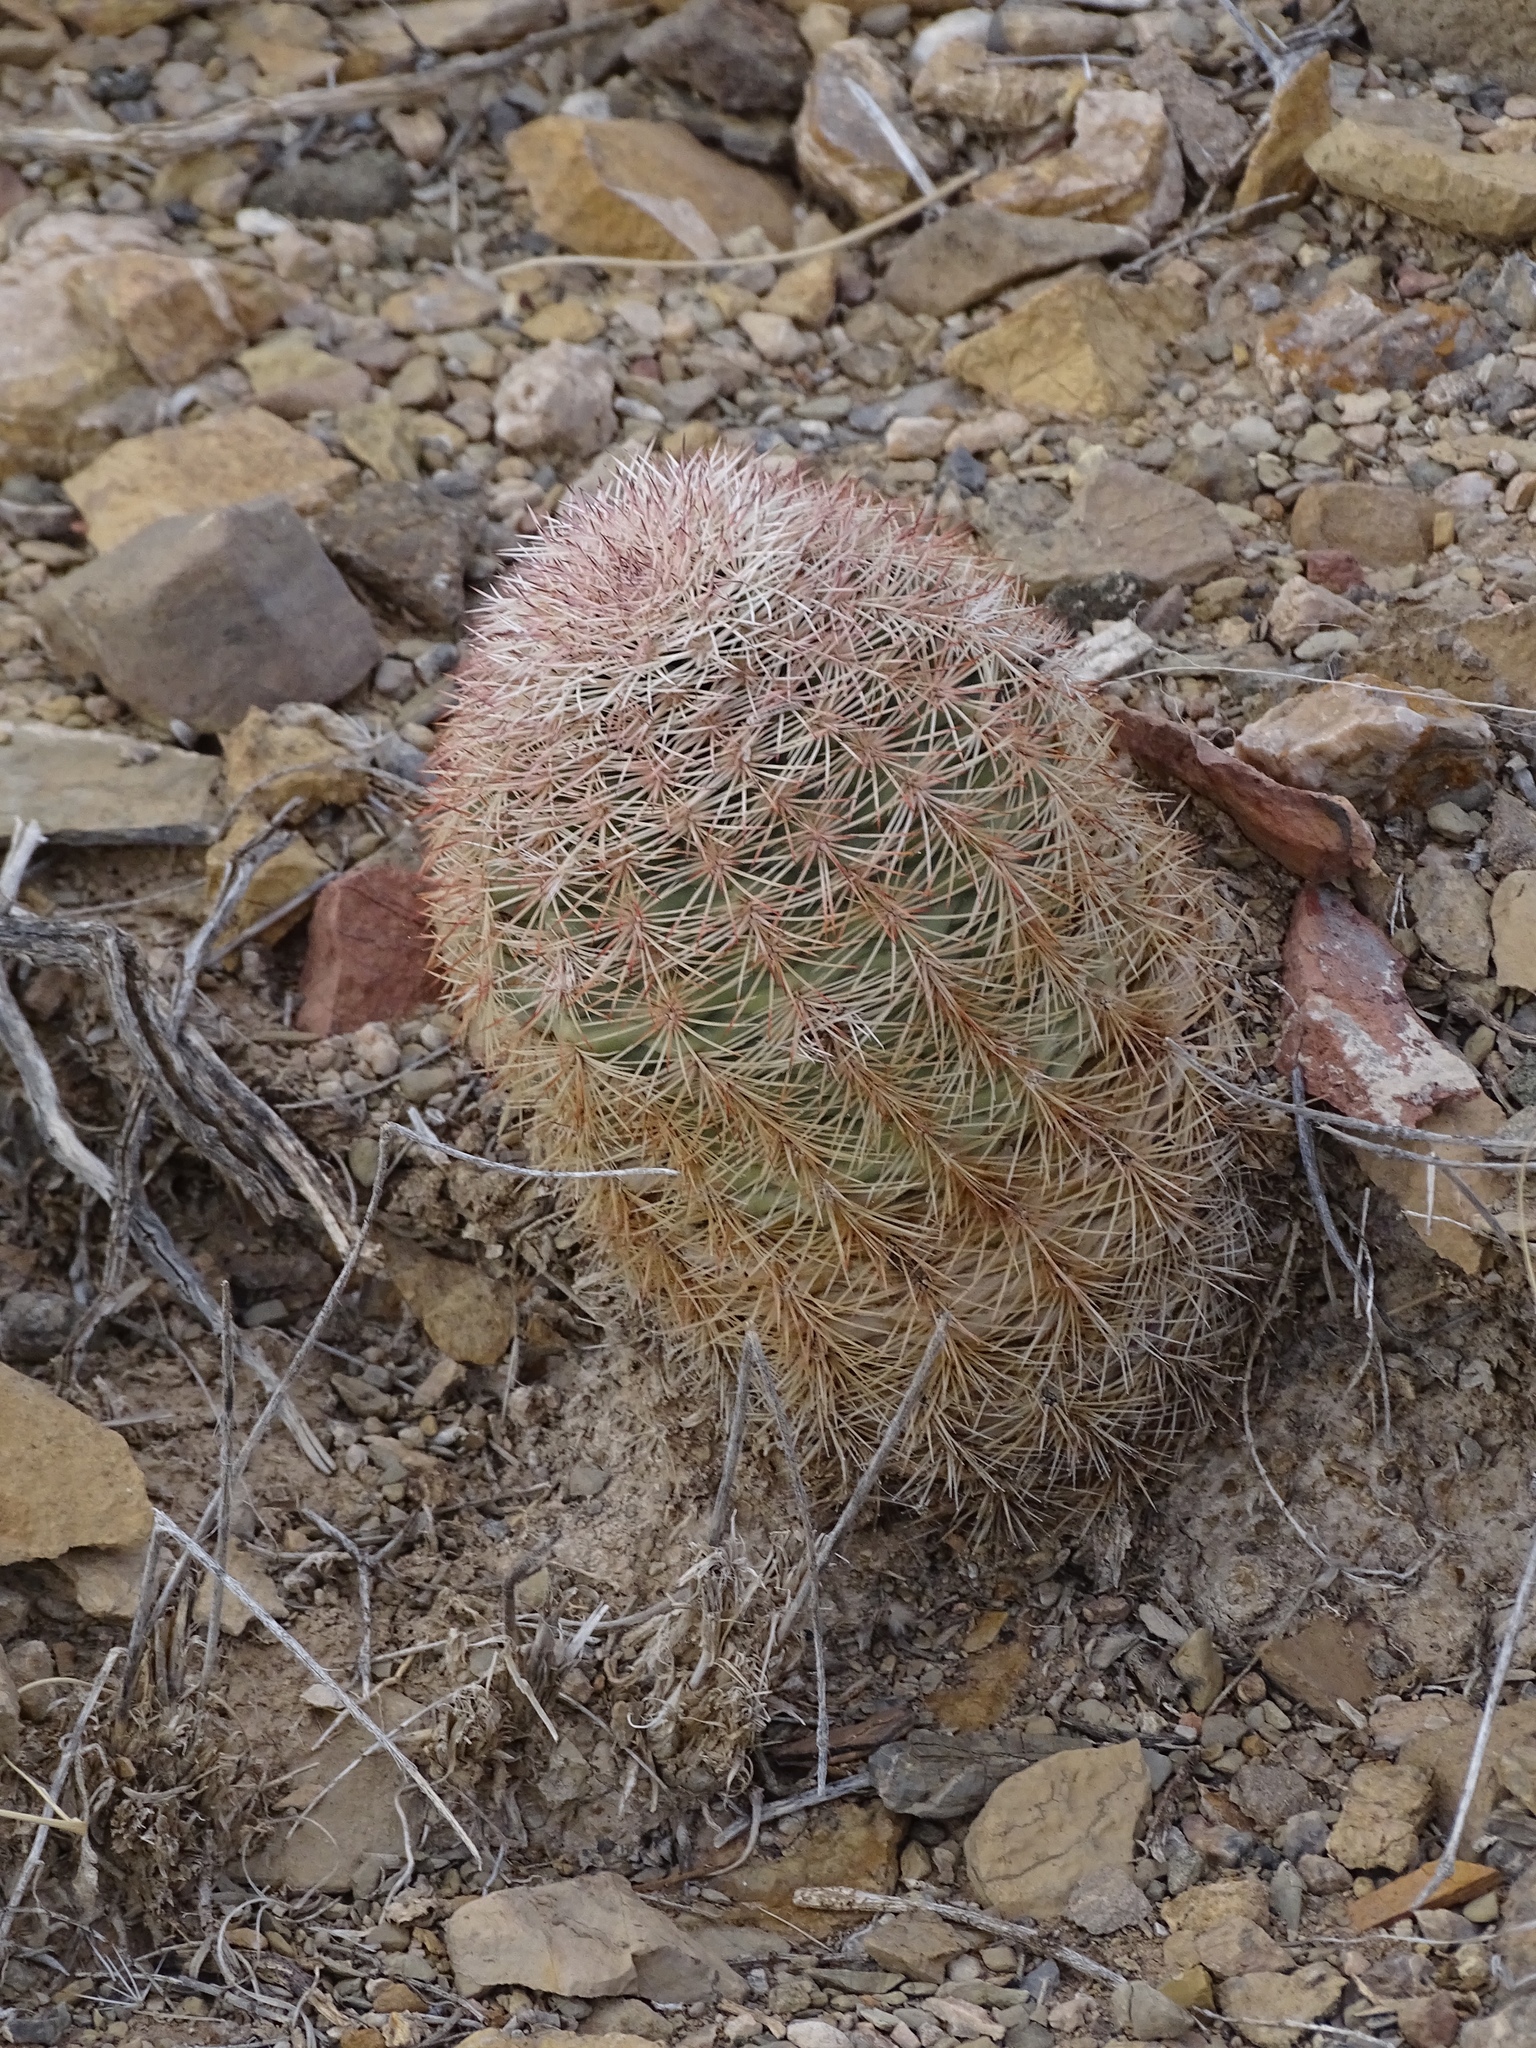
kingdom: Plantae
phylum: Tracheophyta
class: Magnoliopsida
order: Caryophyllales
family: Cactaceae
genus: Echinocereus
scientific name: Echinocereus dasyacanthus
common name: Spiny hedgehog cactus
